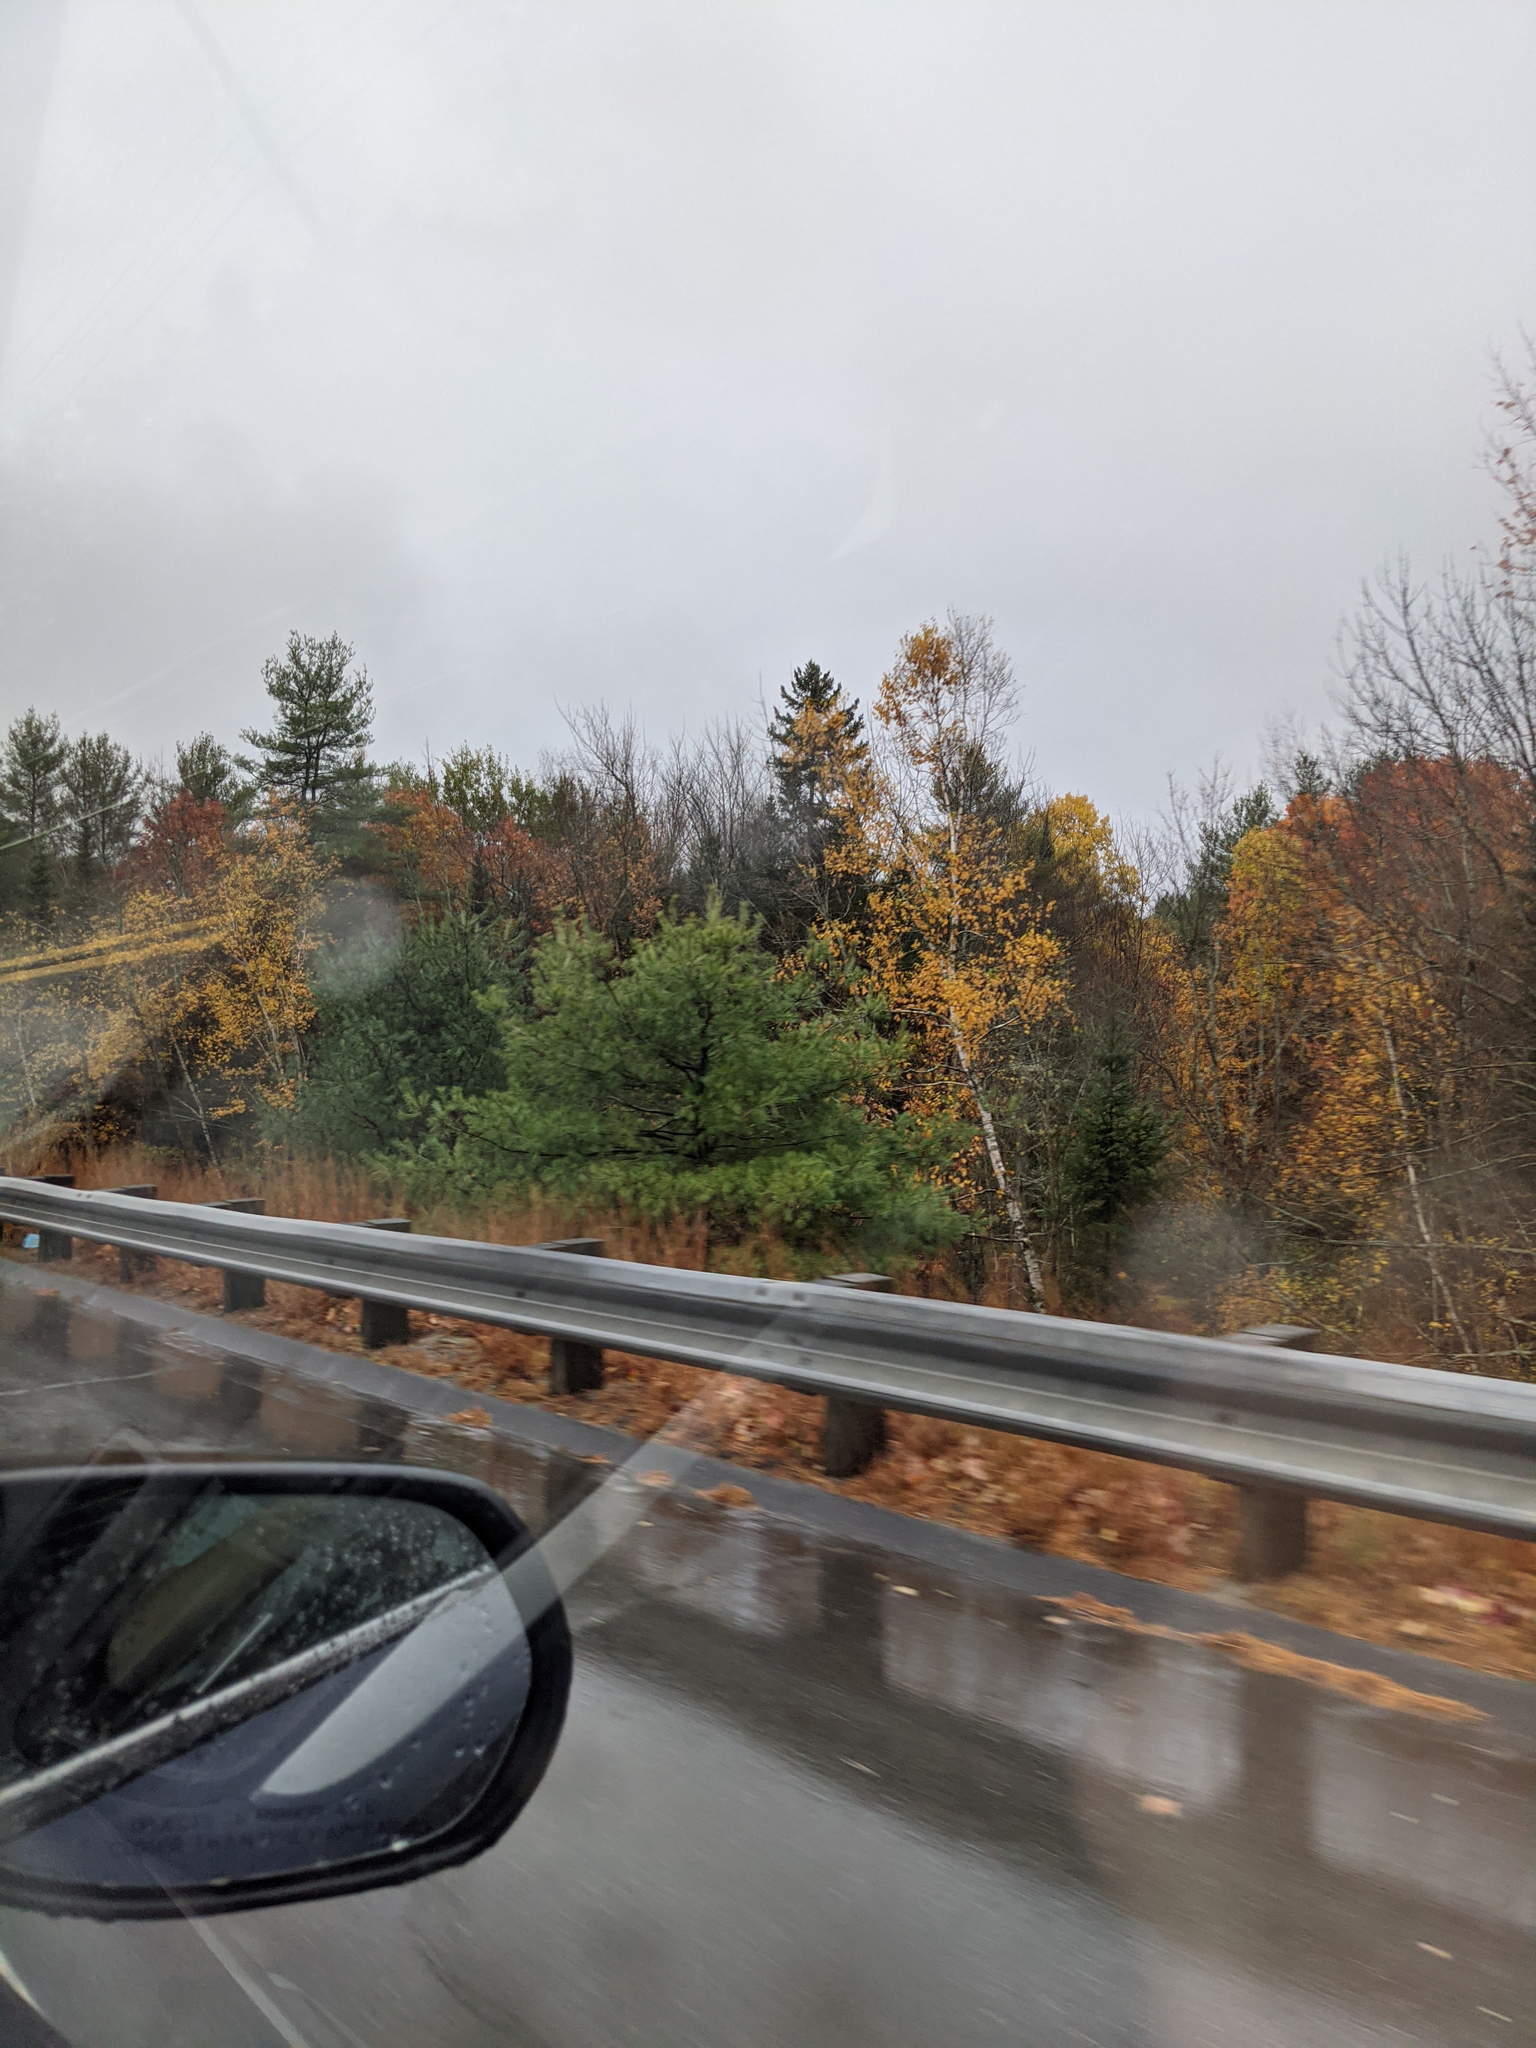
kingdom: Plantae
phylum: Tracheophyta
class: Pinopsida
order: Pinales
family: Pinaceae
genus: Pinus
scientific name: Pinus strobus
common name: Weymouth pine
